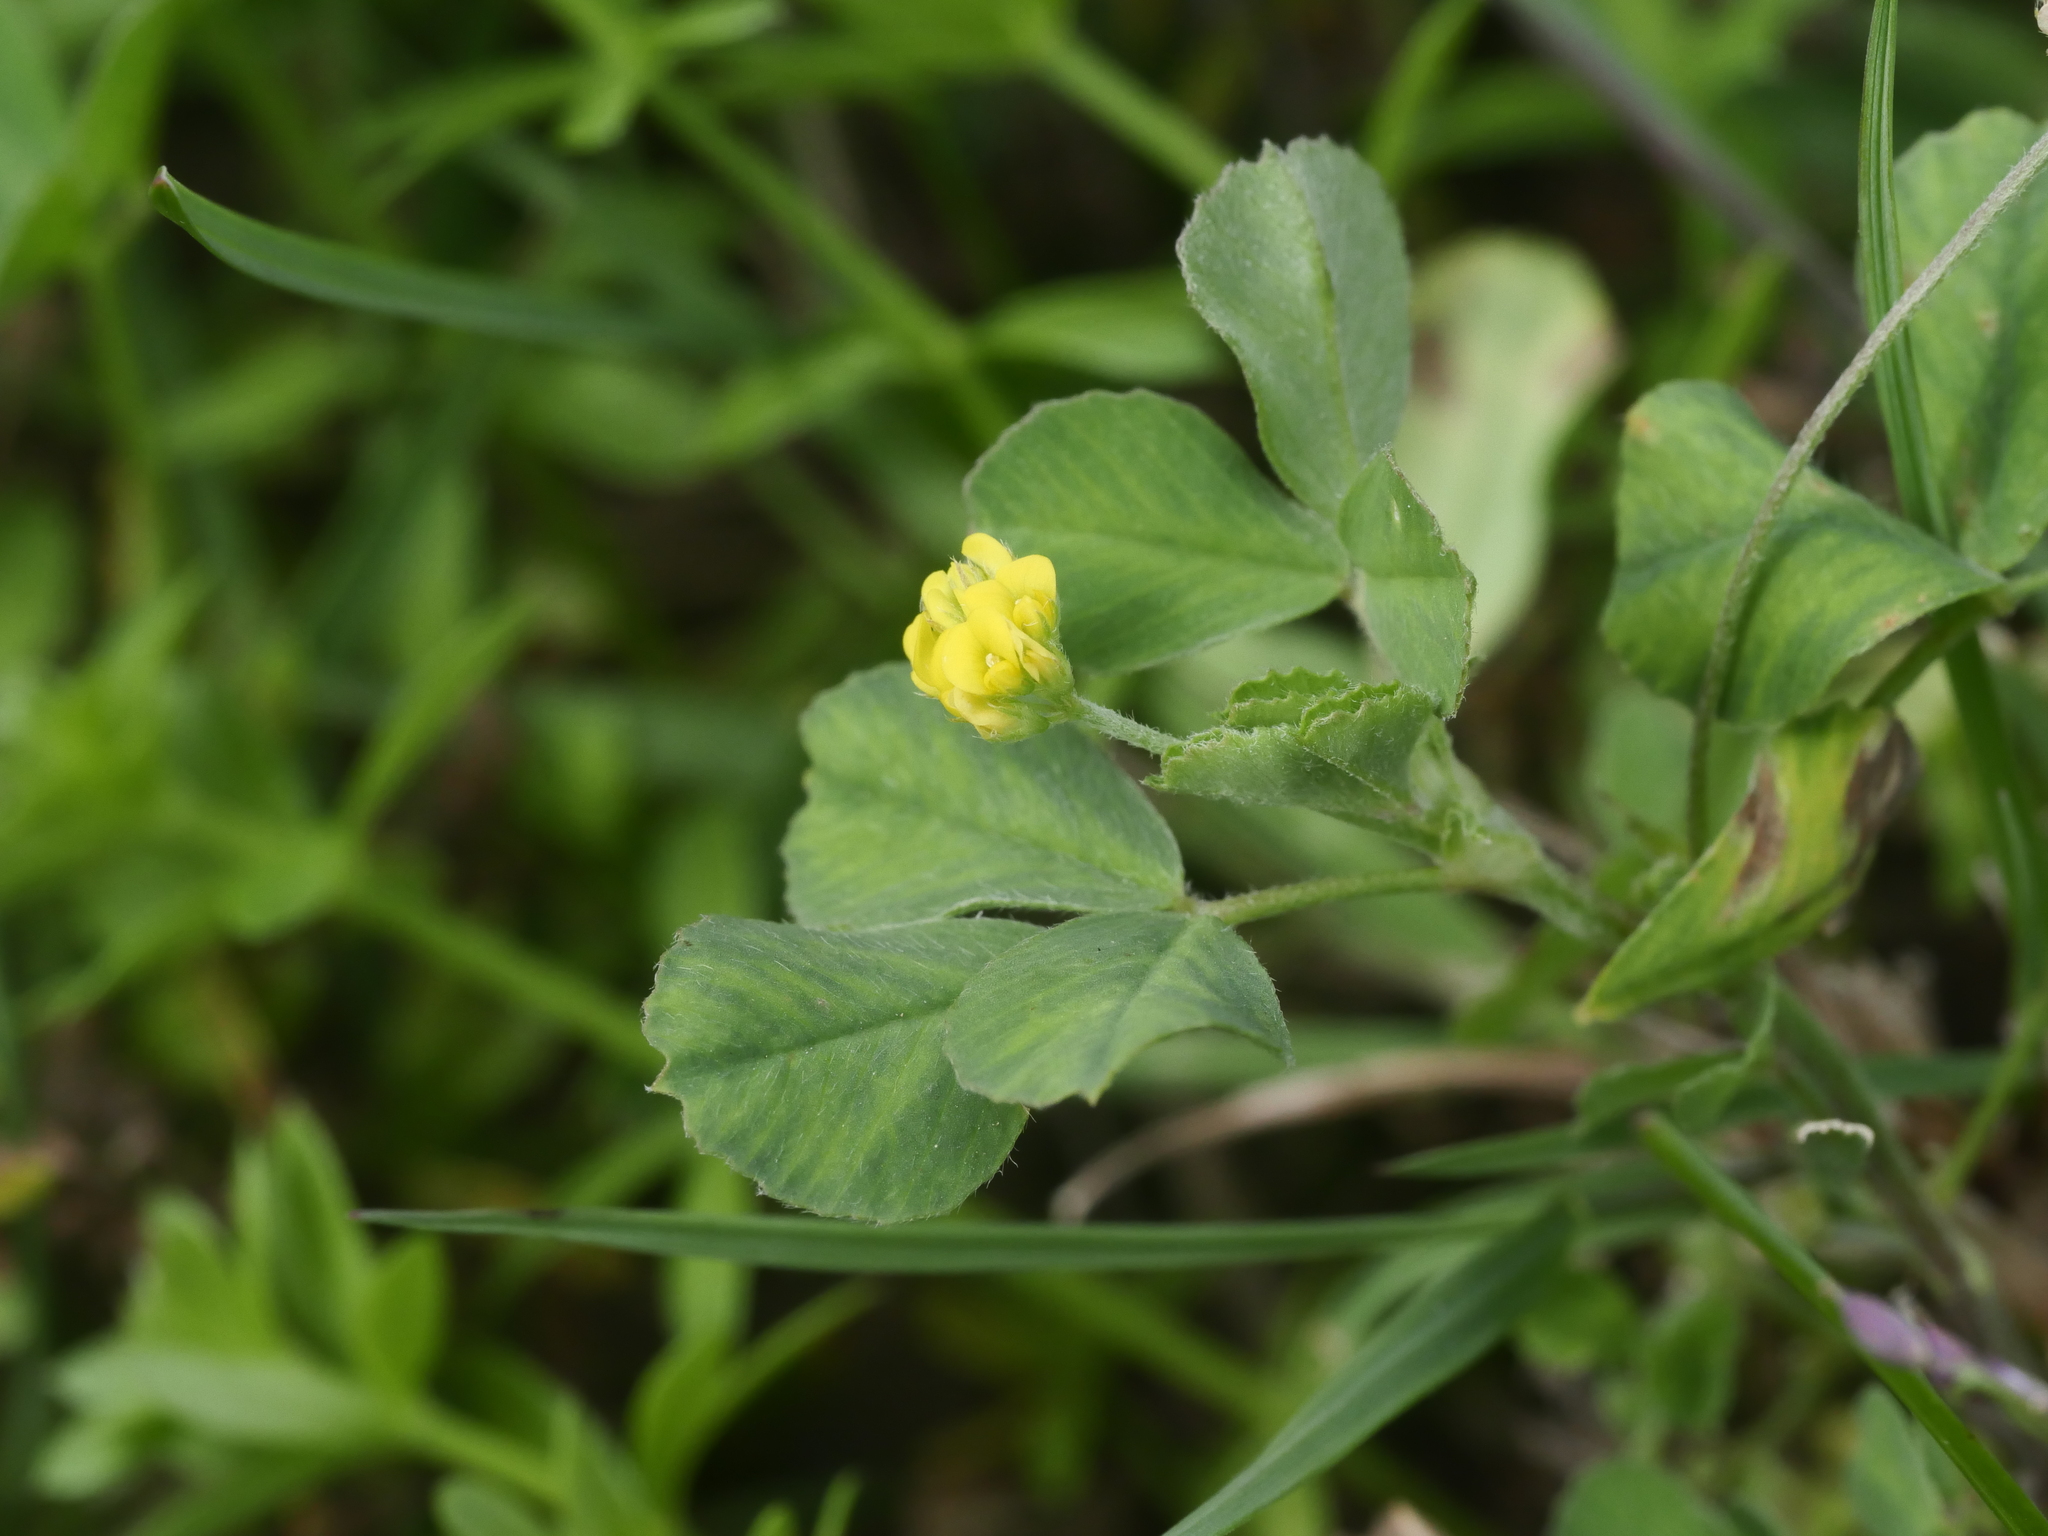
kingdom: Plantae
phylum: Tracheophyta
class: Magnoliopsida
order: Fabales
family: Fabaceae
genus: Medicago
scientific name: Medicago lupulina
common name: Black medick
